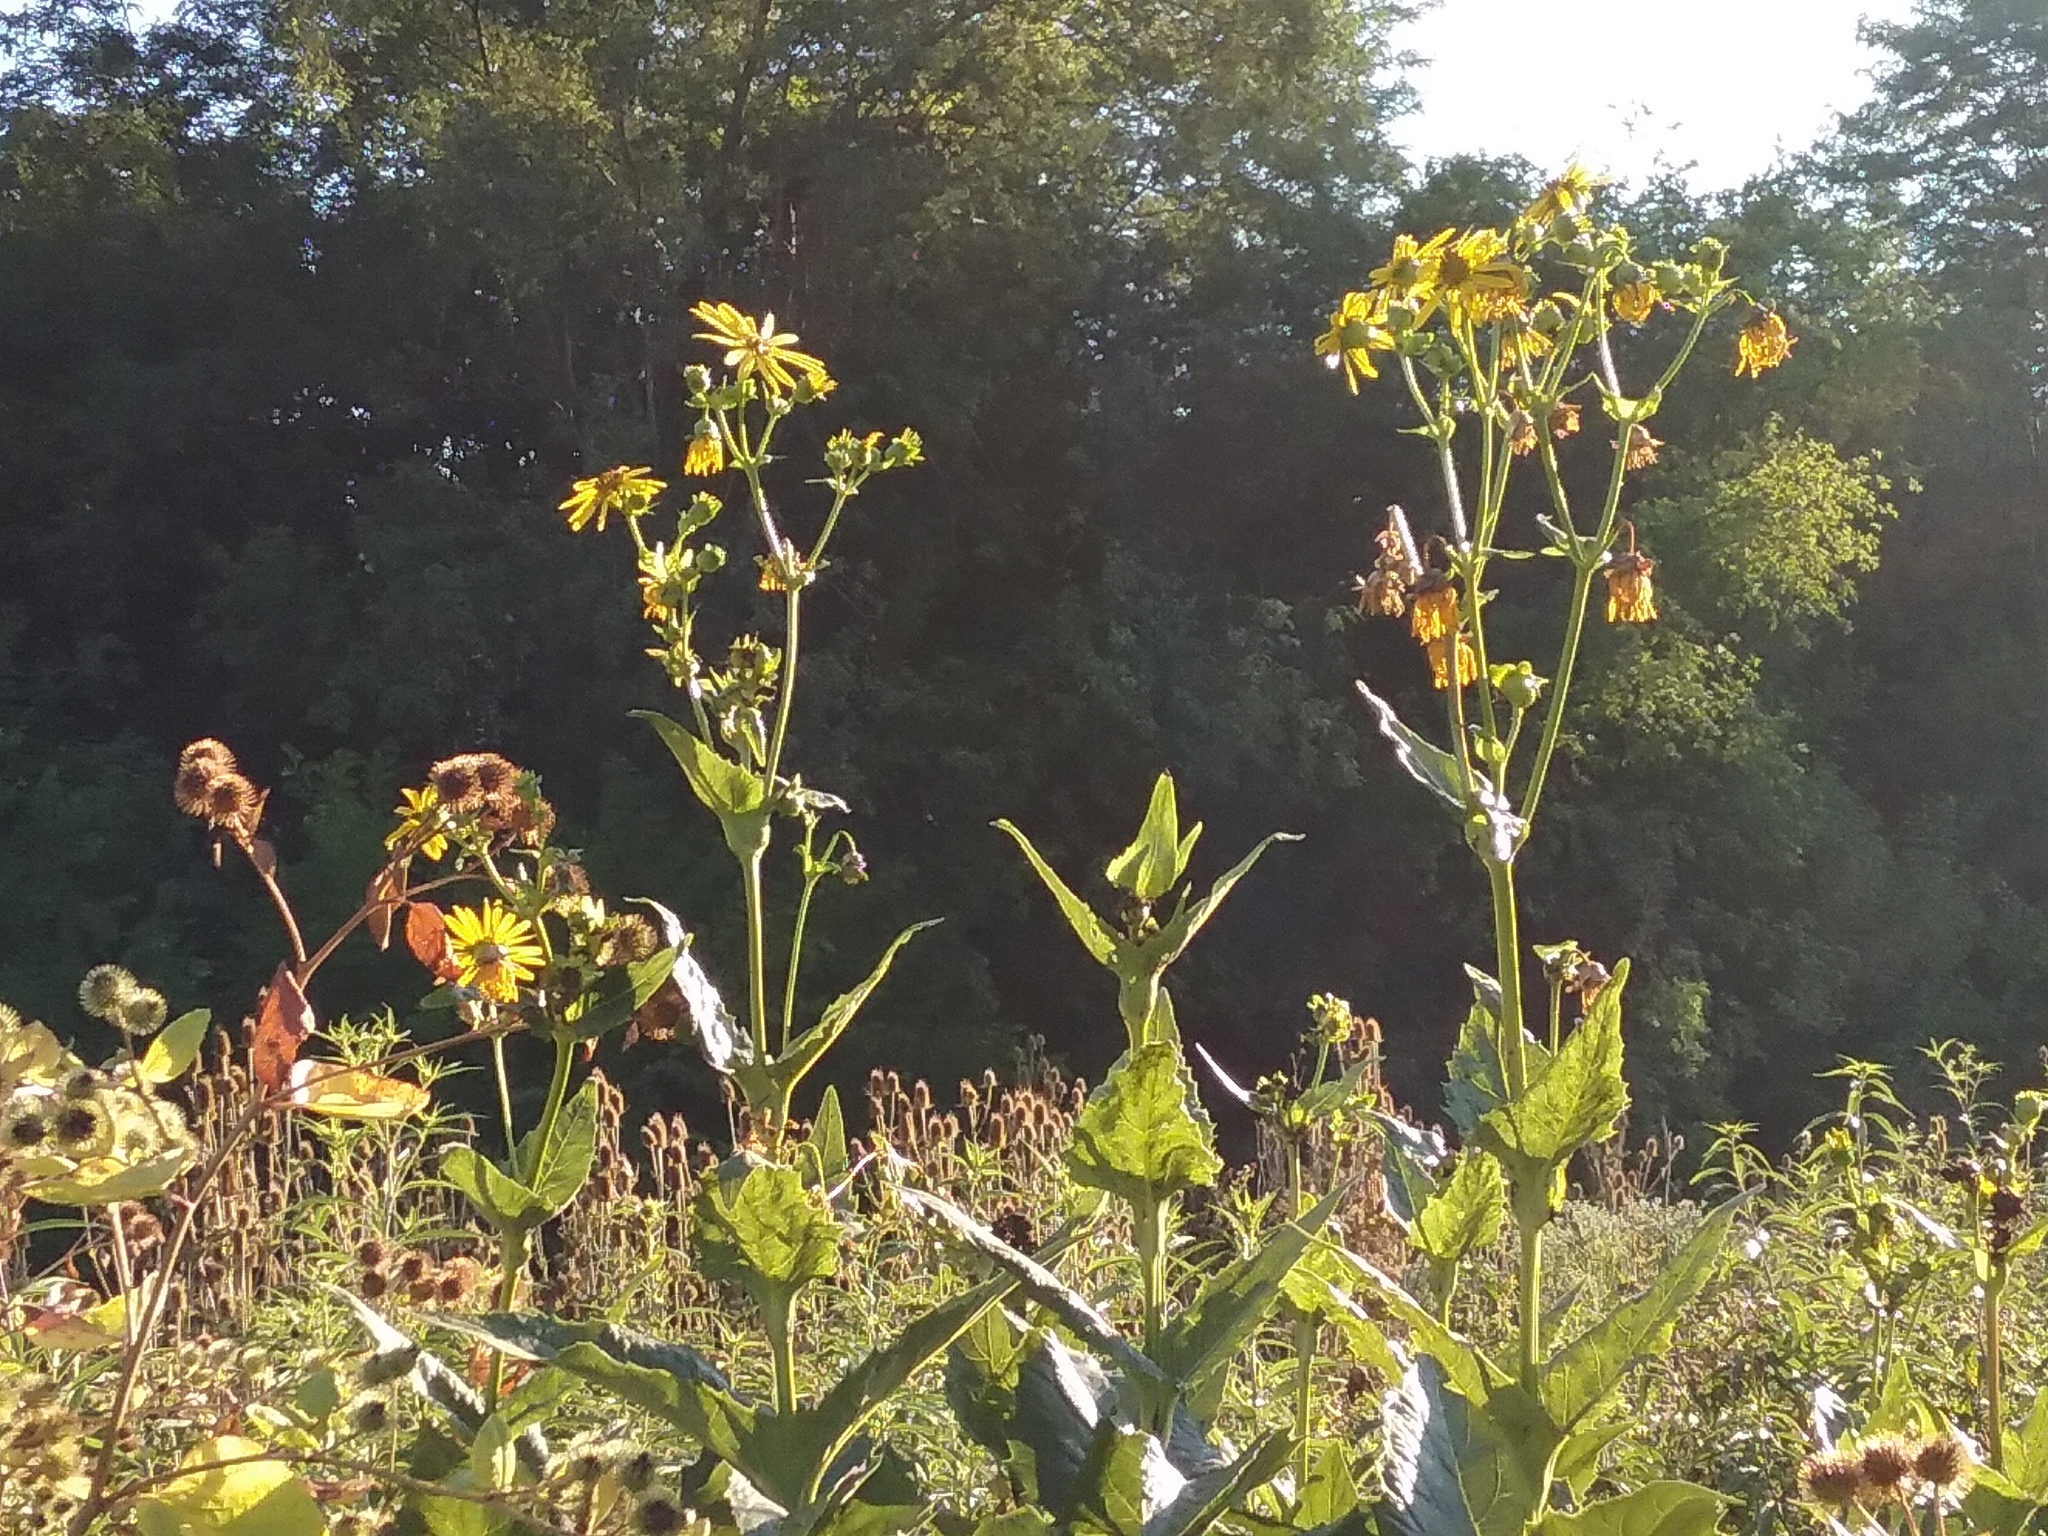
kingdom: Plantae
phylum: Tracheophyta
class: Magnoliopsida
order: Asterales
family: Asteraceae
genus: Silphium
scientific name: Silphium perfoliatum
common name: Cup-plant
